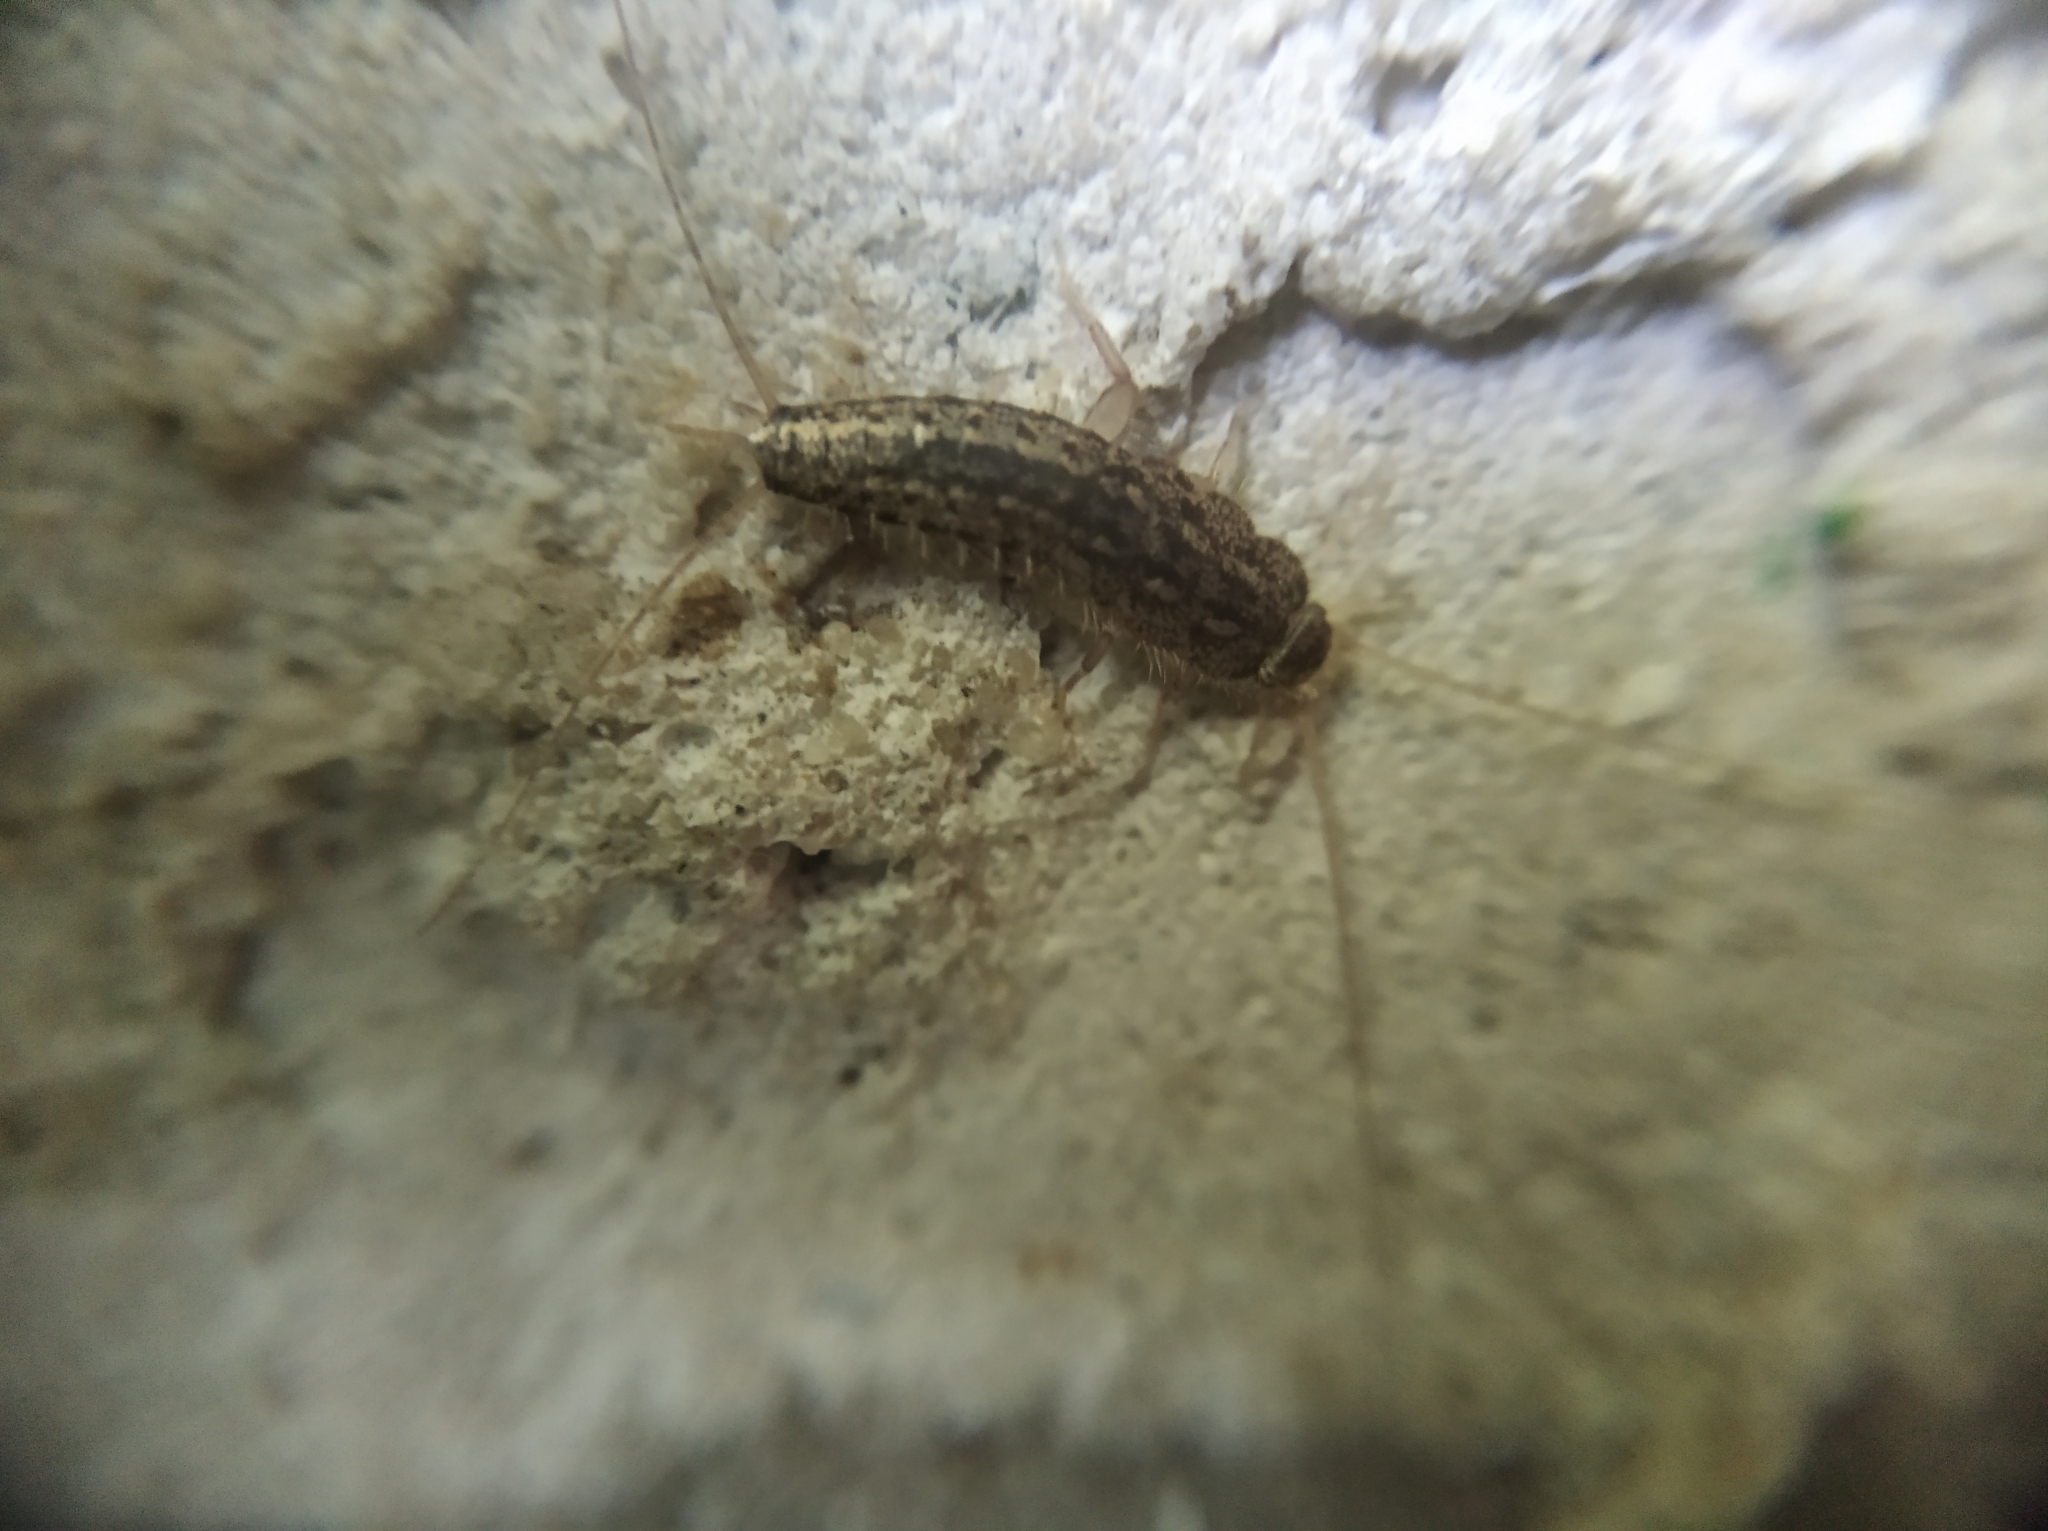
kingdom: Animalia
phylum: Arthropoda
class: Insecta
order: Zygentoma
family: Lepismatidae
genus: Ctenolepisma
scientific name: Ctenolepisma lineata
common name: Four-lined silverfish
